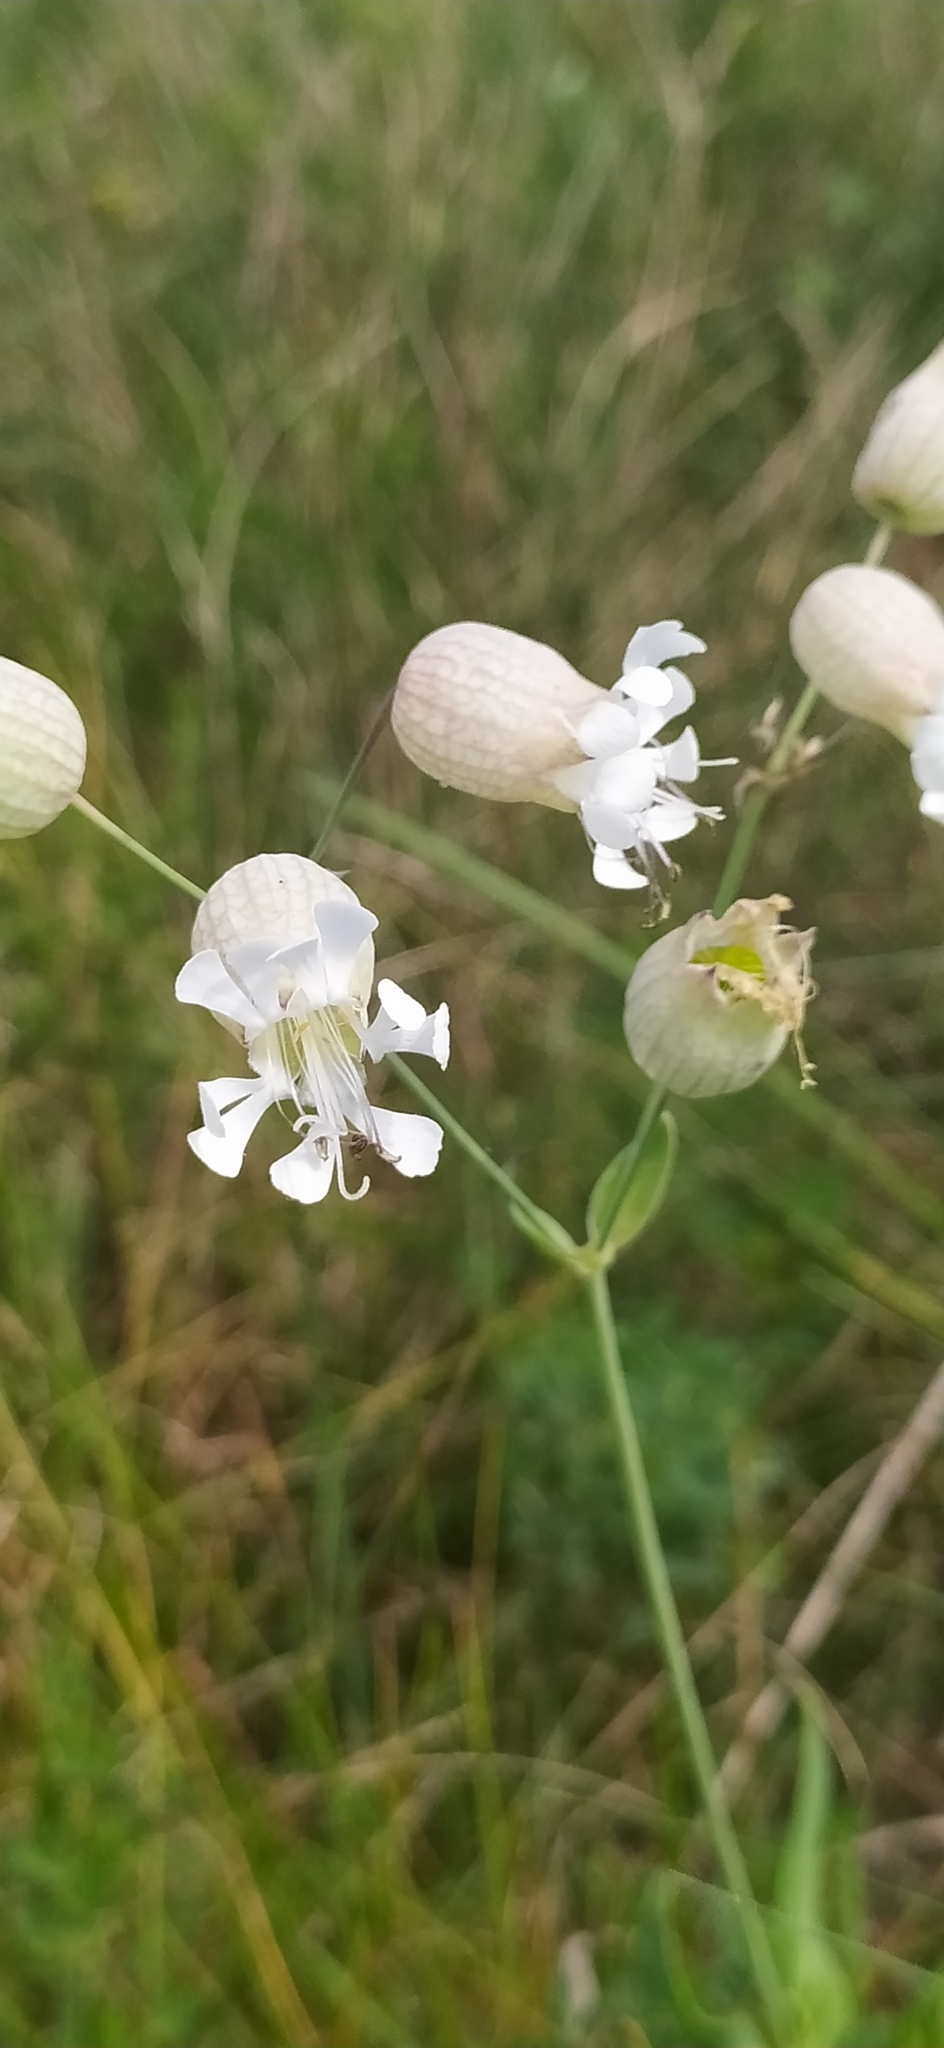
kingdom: Plantae
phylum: Tracheophyta
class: Magnoliopsida
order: Caryophyllales
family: Caryophyllaceae
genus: Silene
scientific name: Silene vulgaris
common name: Bladder campion
